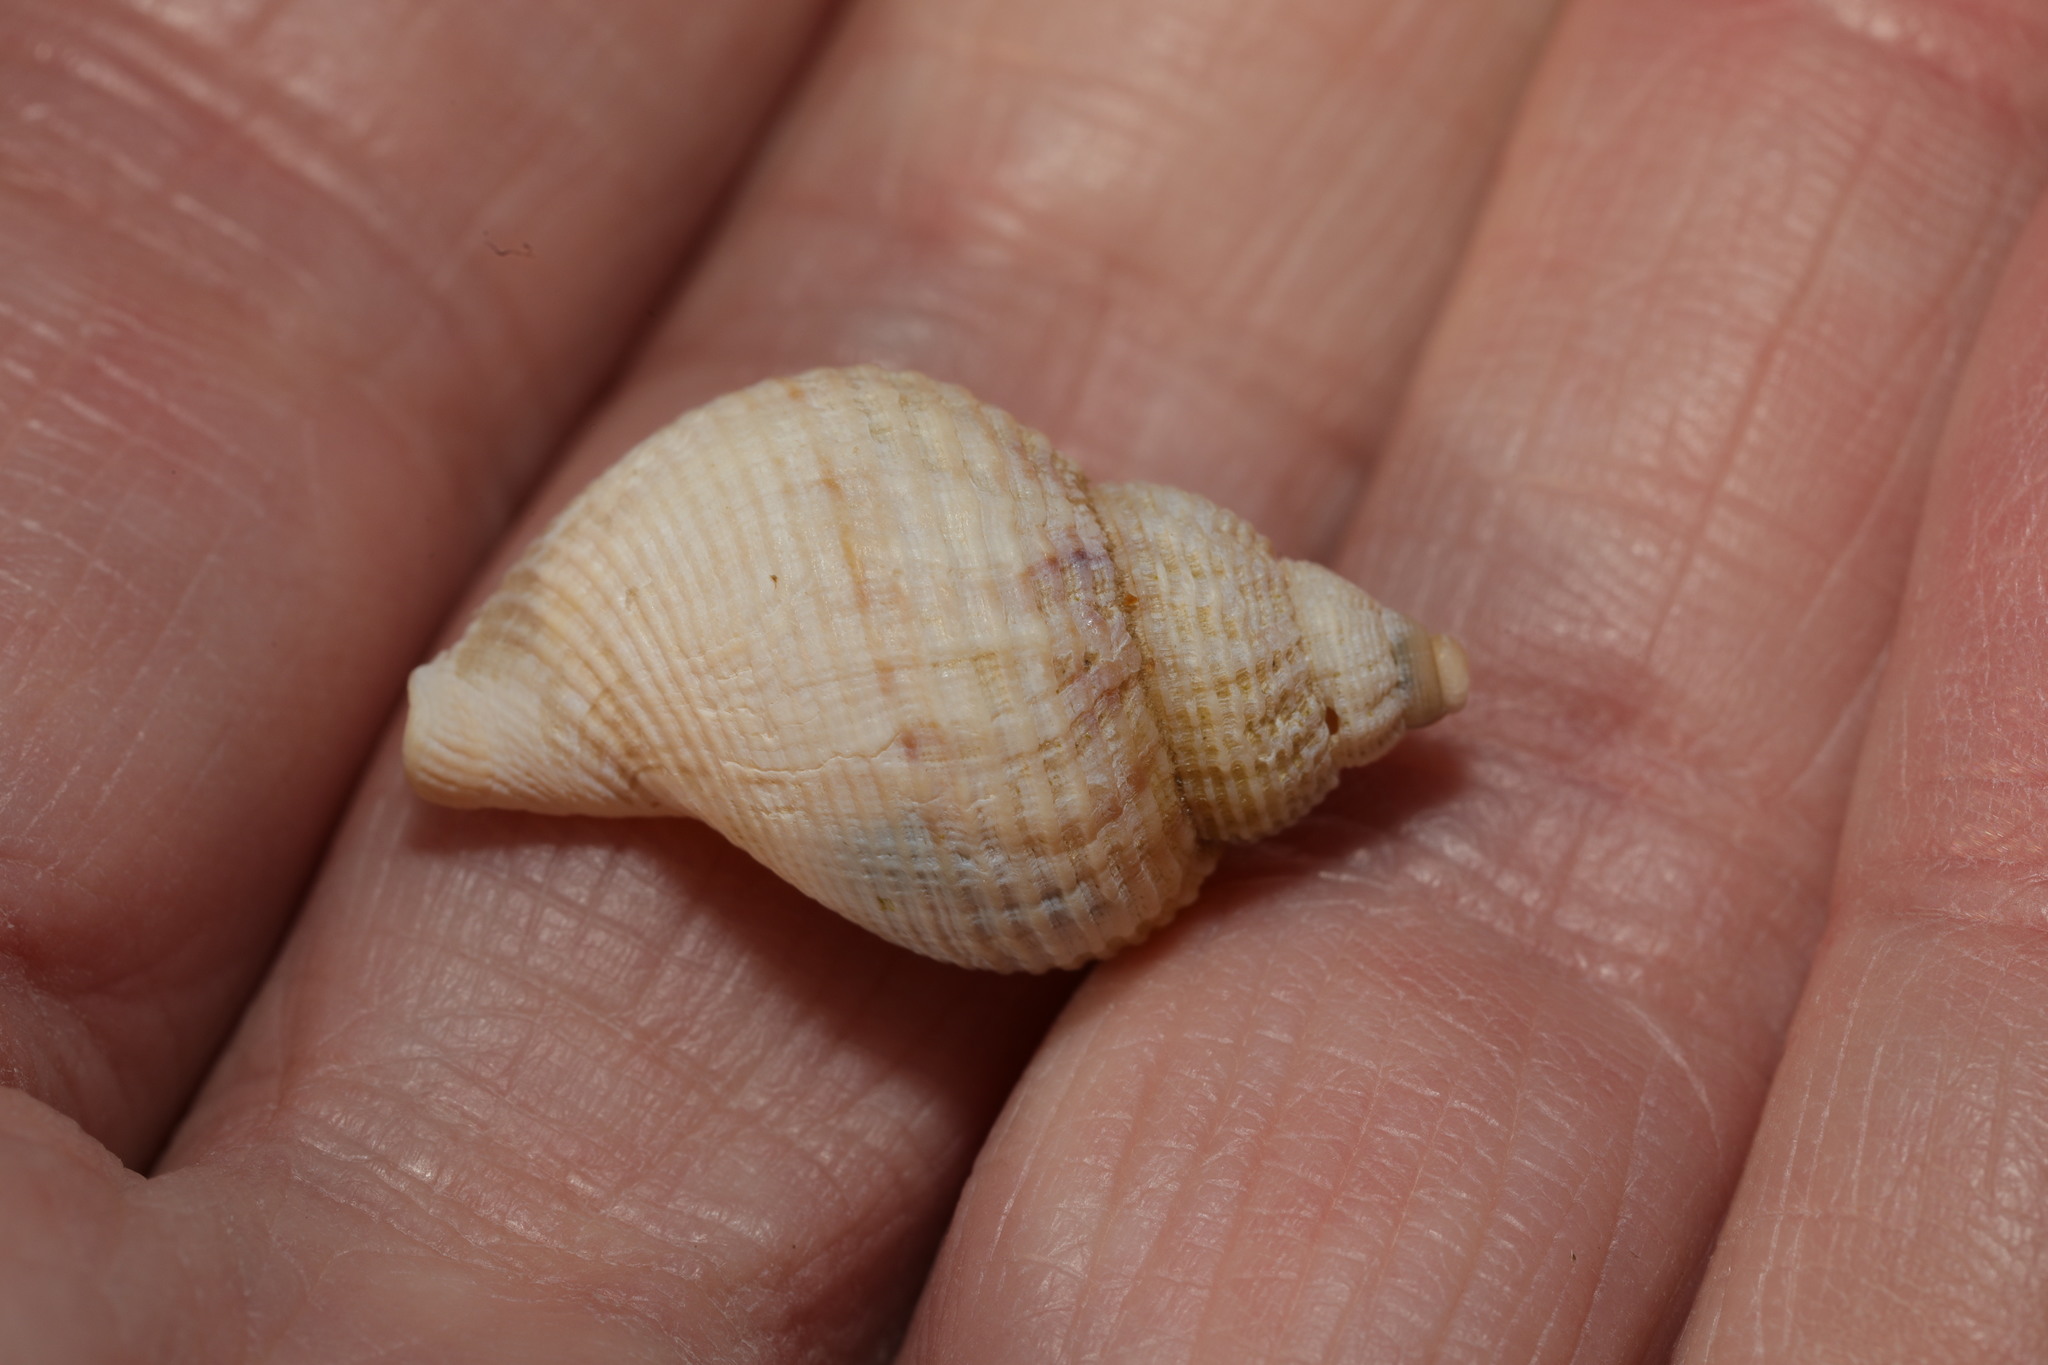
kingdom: Animalia
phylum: Mollusca
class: Gastropoda
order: Neogastropoda
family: Buccinidae
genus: Buccinum
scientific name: Buccinum undatum
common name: Common whelk
